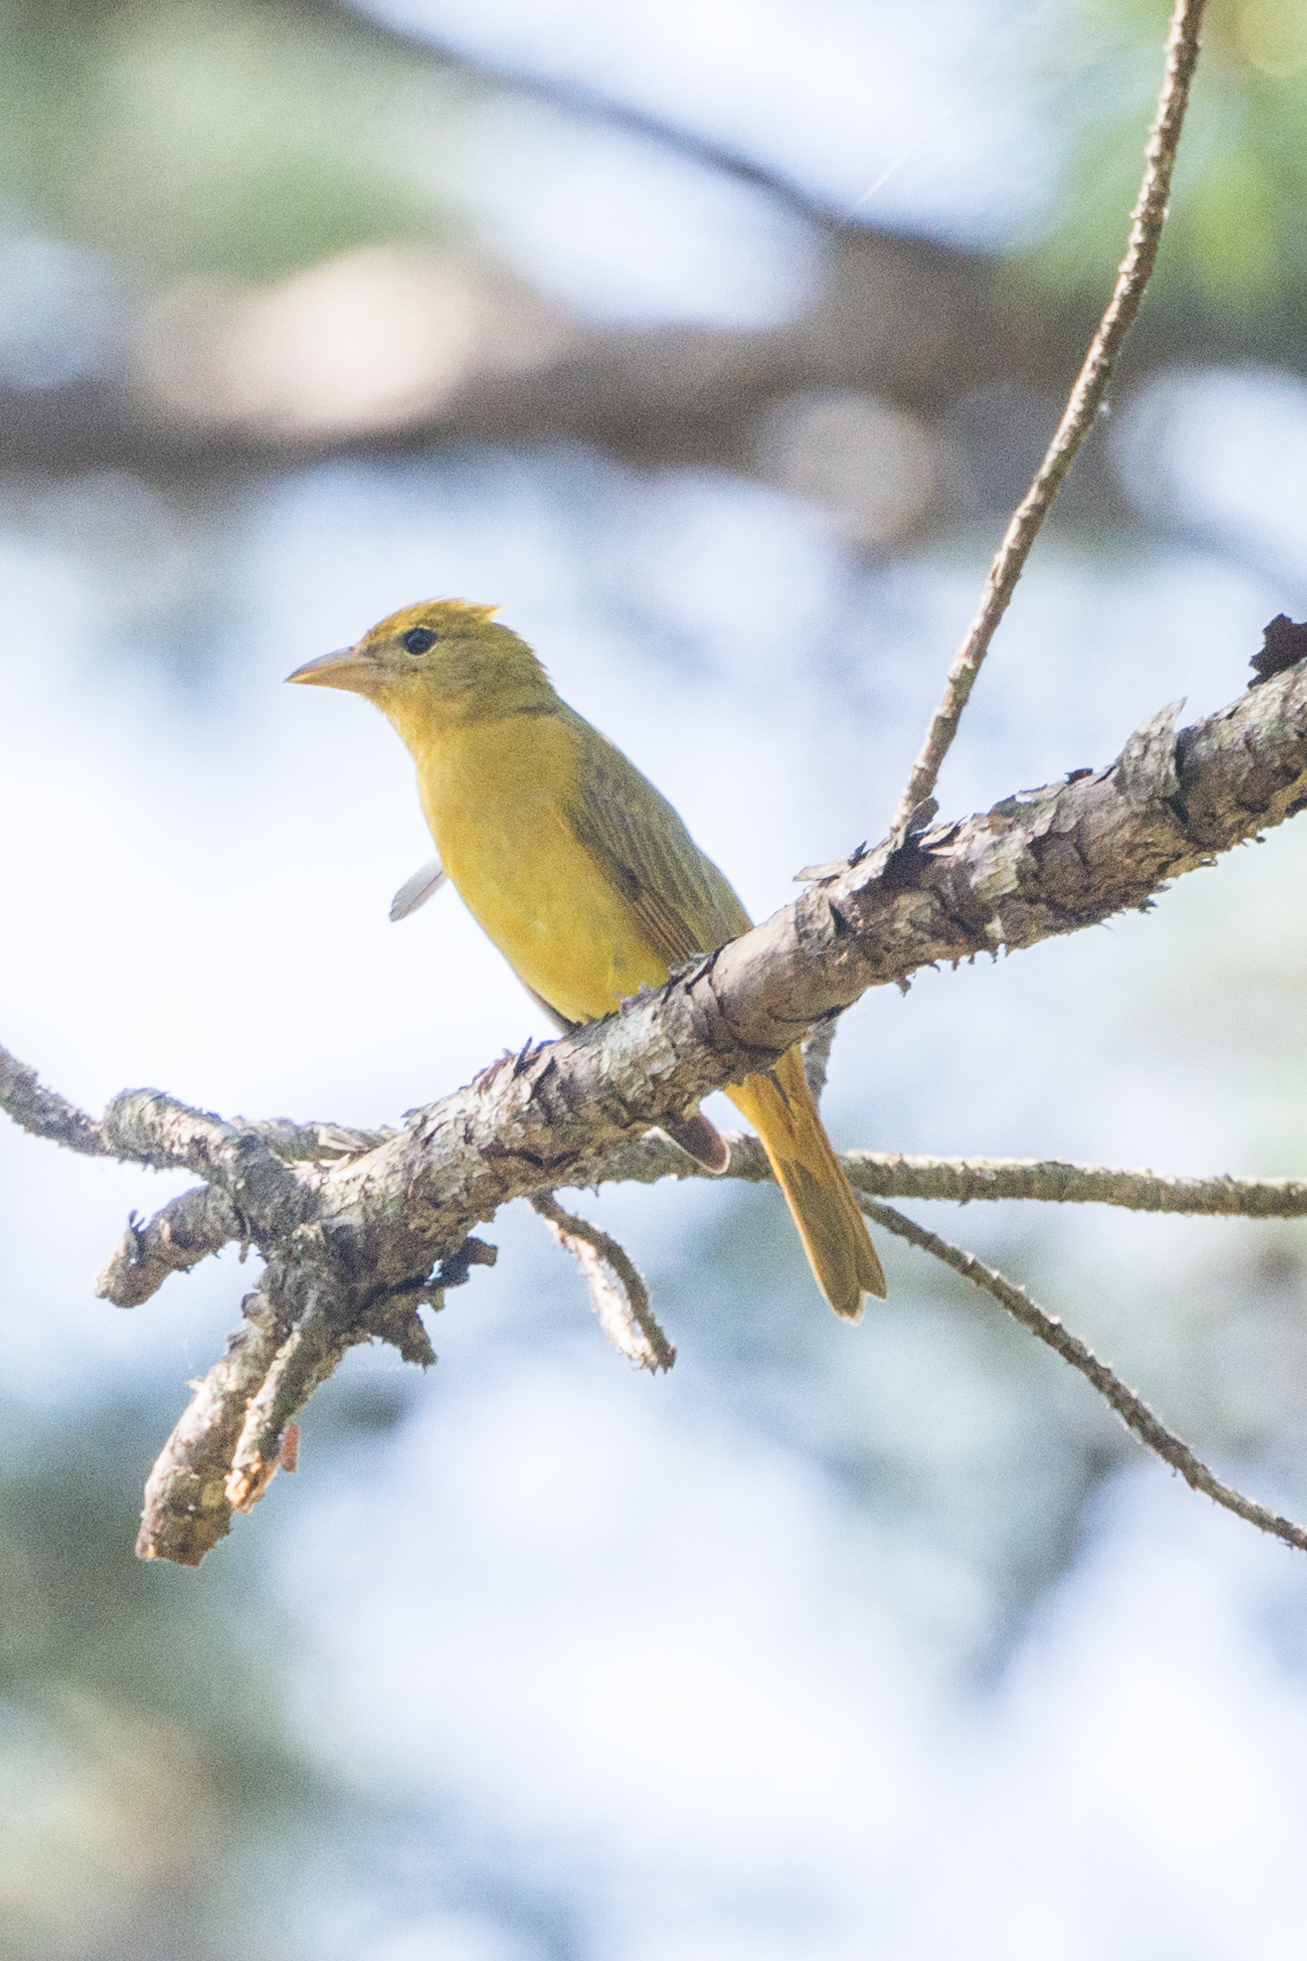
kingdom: Animalia
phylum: Chordata
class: Aves
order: Passeriformes
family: Cardinalidae
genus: Piranga
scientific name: Piranga rubra
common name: Summer tanager
